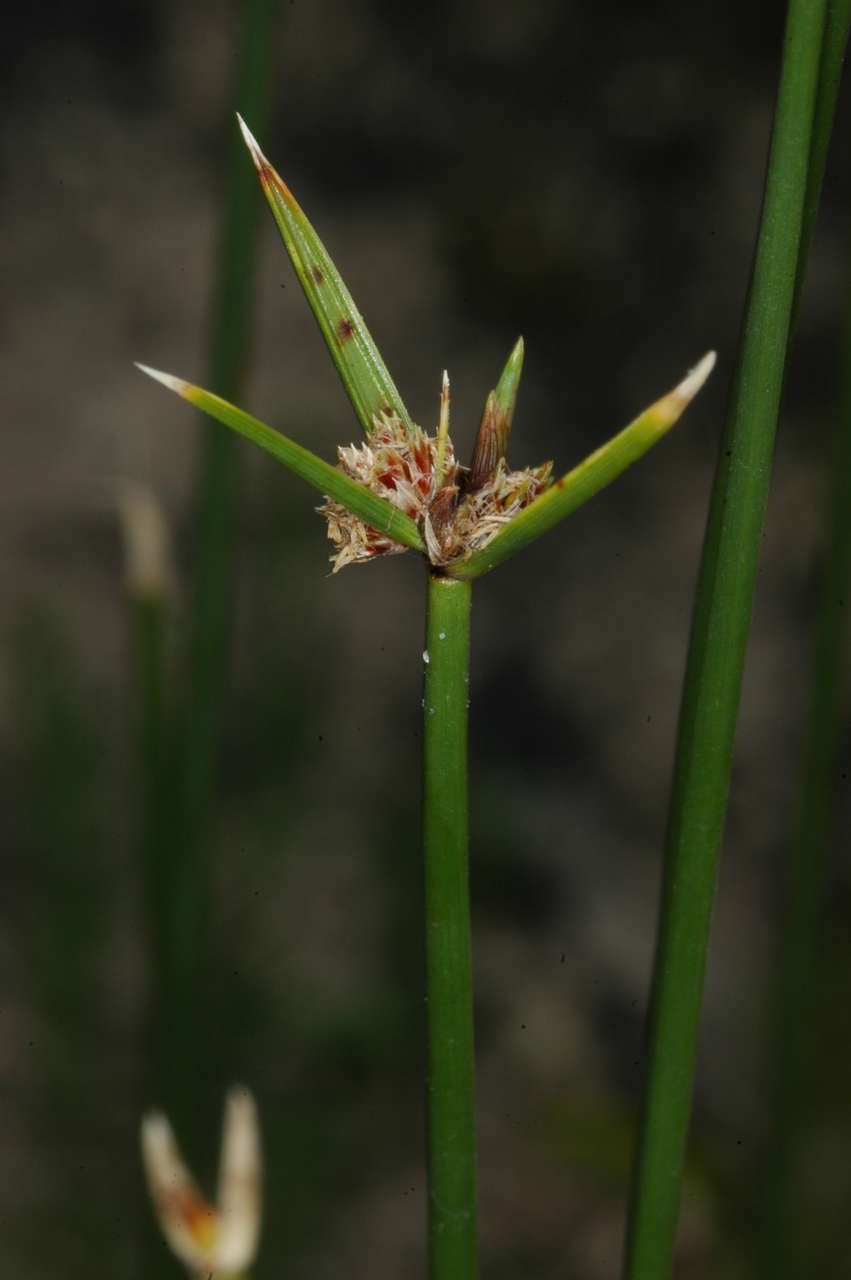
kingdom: Plantae
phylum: Tracheophyta
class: Liliopsida
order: Poales
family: Cyperaceae
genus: Cyperus
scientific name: Cyperus gymnocaulos
